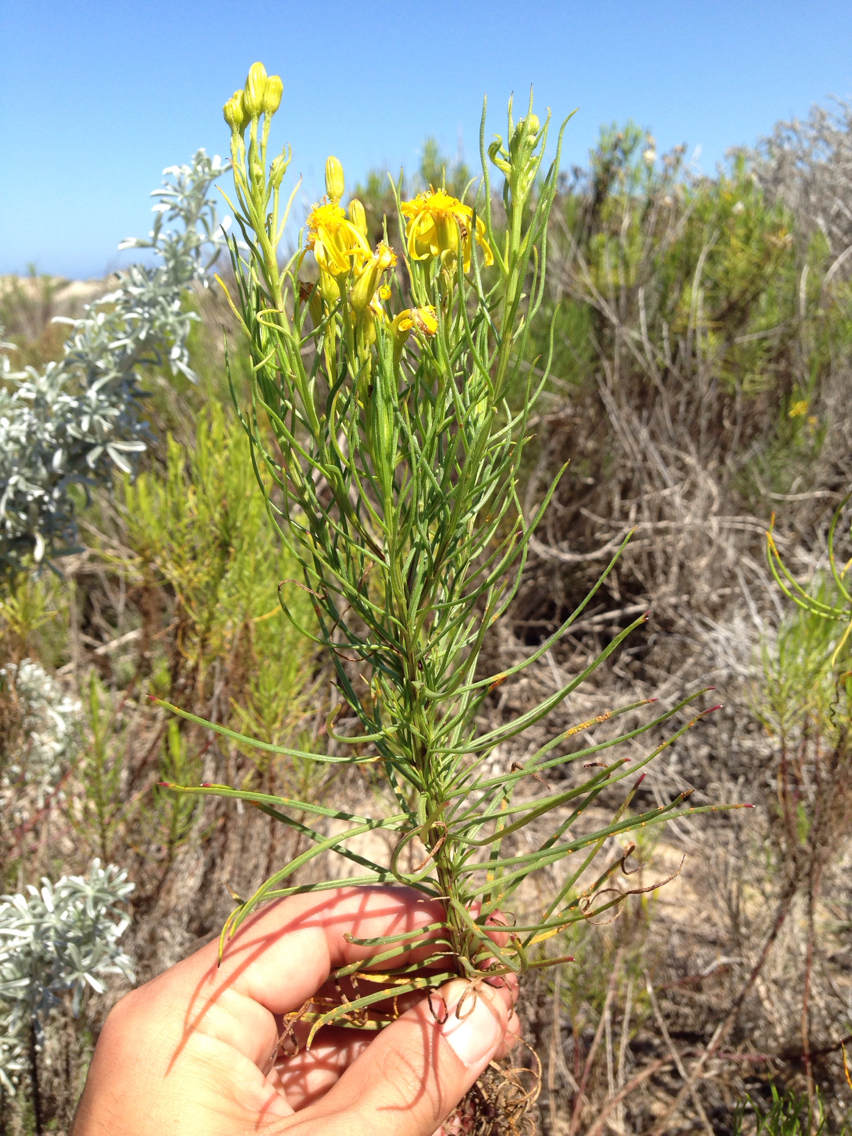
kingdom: Plantae
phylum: Tracheophyta
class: Magnoliopsida
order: Asterales
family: Asteraceae
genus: Senecio
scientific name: Senecio blochmaniae
